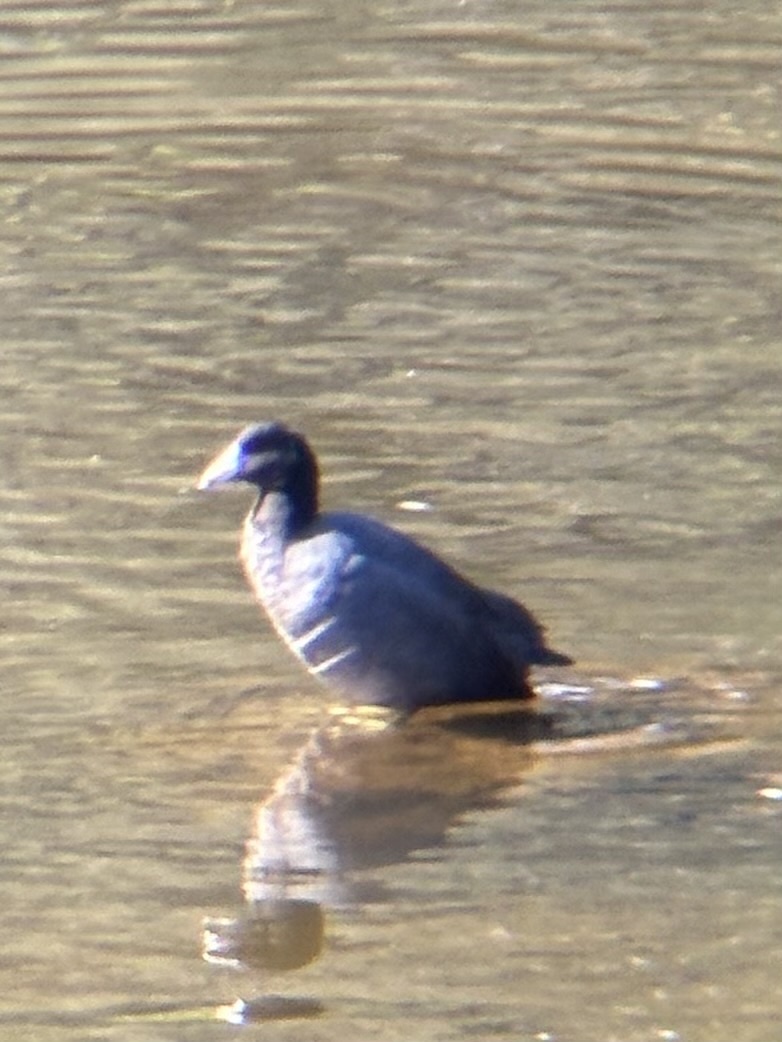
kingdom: Animalia
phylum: Chordata
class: Aves
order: Gruiformes
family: Rallidae
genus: Fulica
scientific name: Fulica americana
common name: American coot
